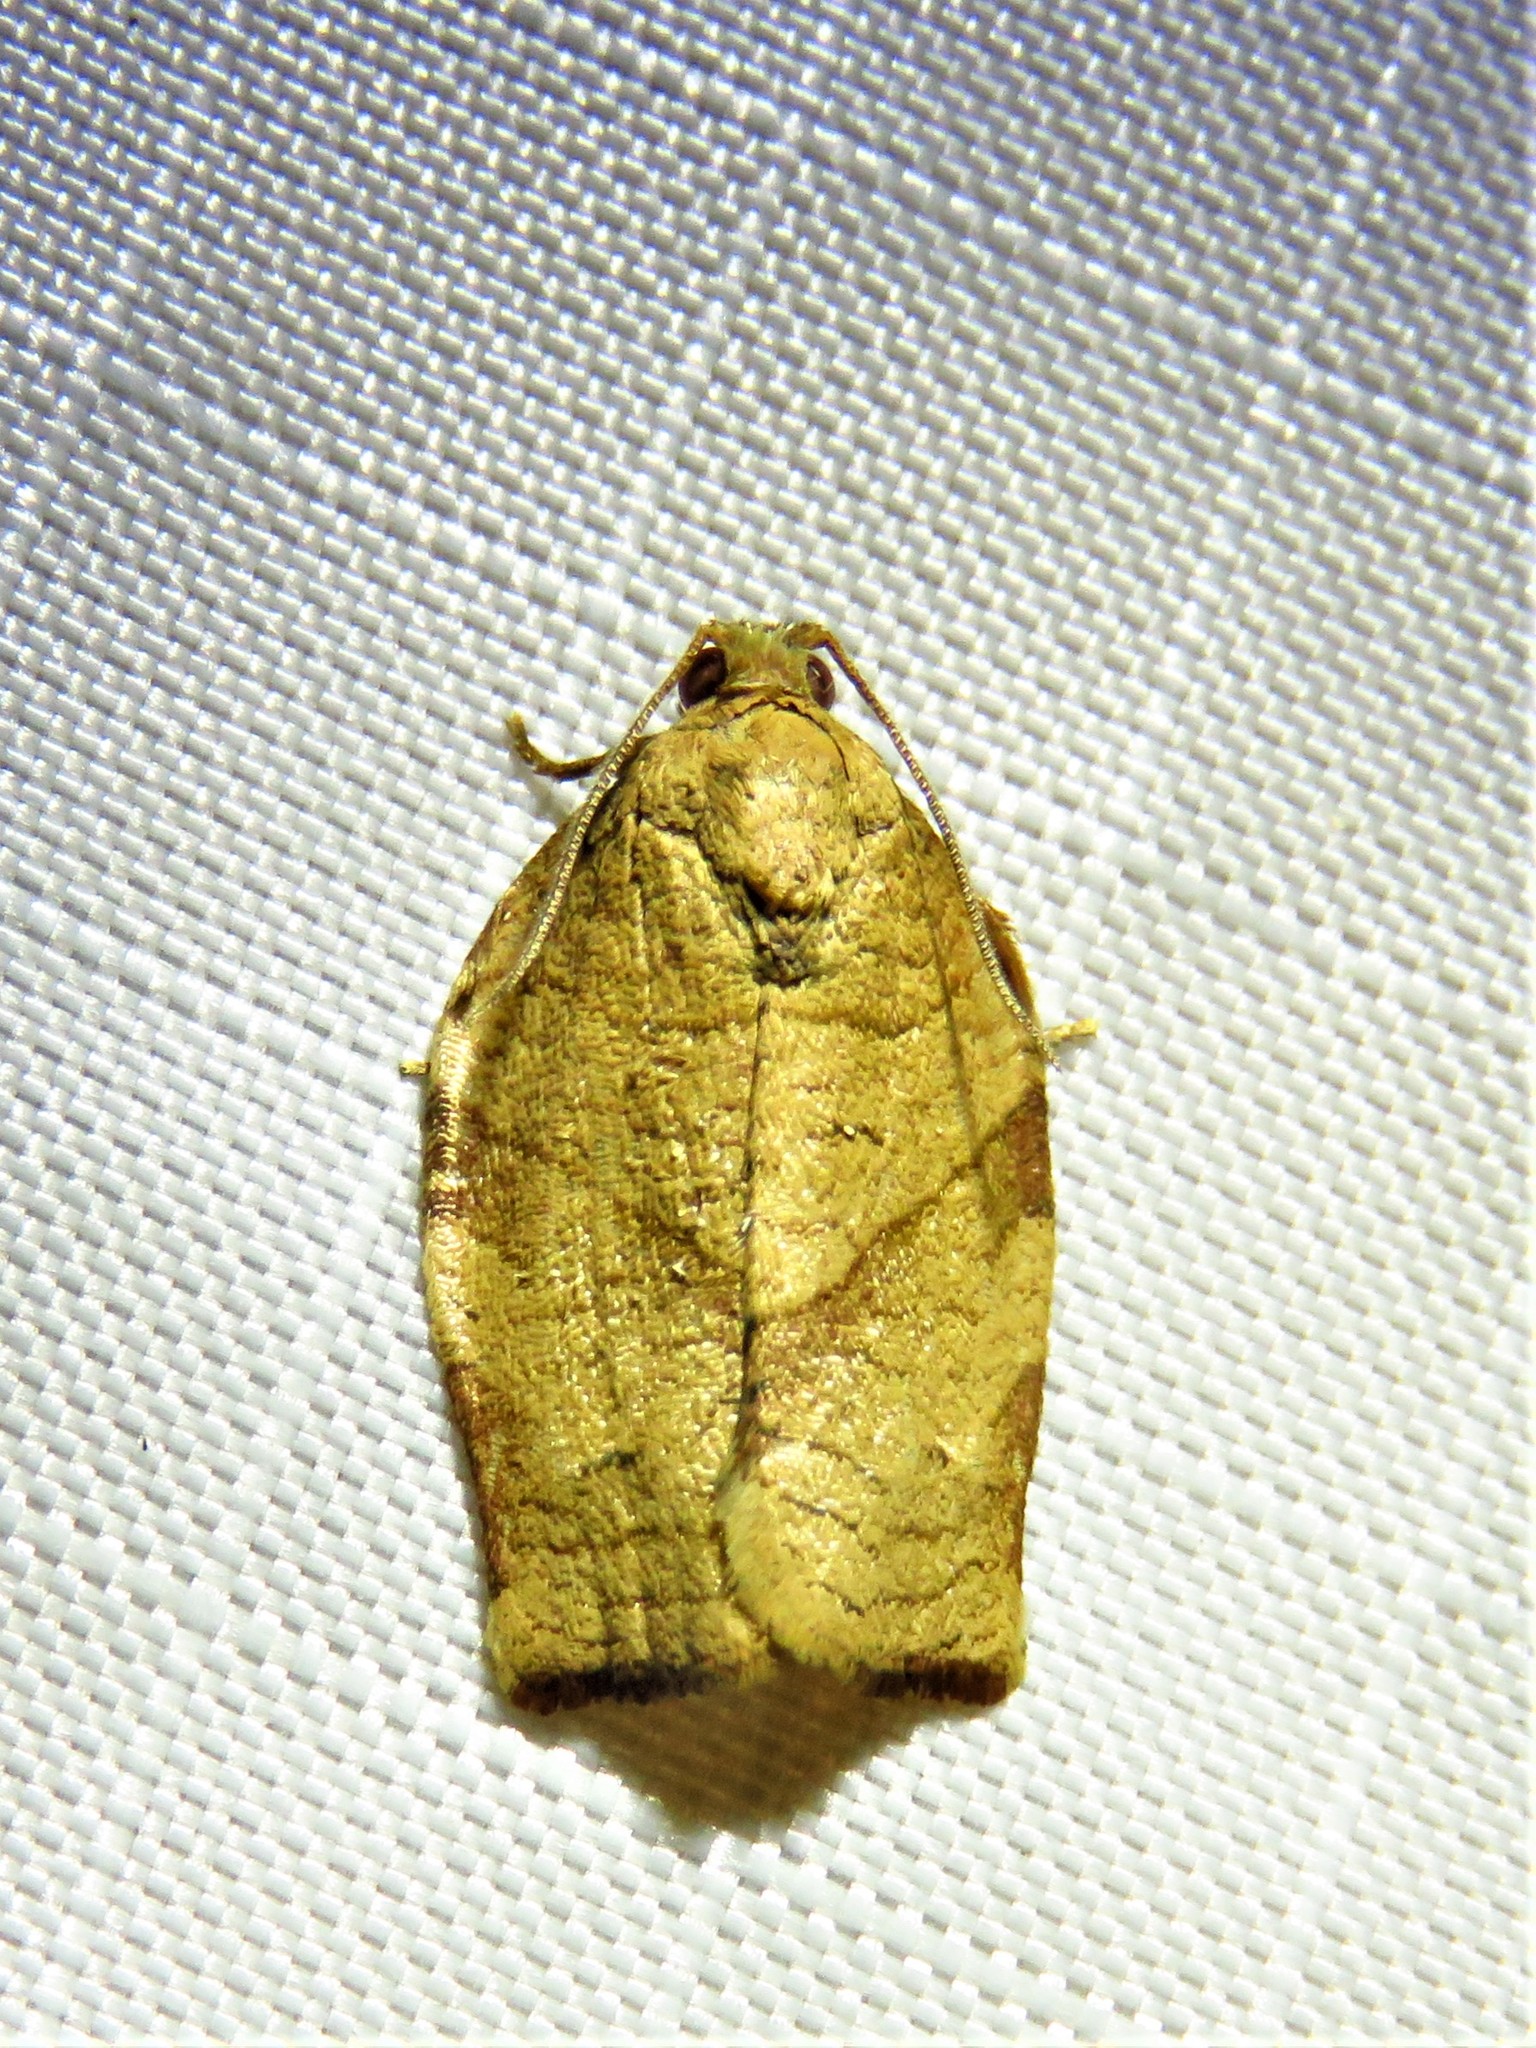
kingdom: Animalia
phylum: Arthropoda
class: Insecta
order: Lepidoptera
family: Tortricidae
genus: Choristoneura
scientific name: Choristoneura rosaceana
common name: Oblique-banded leafroller moth
